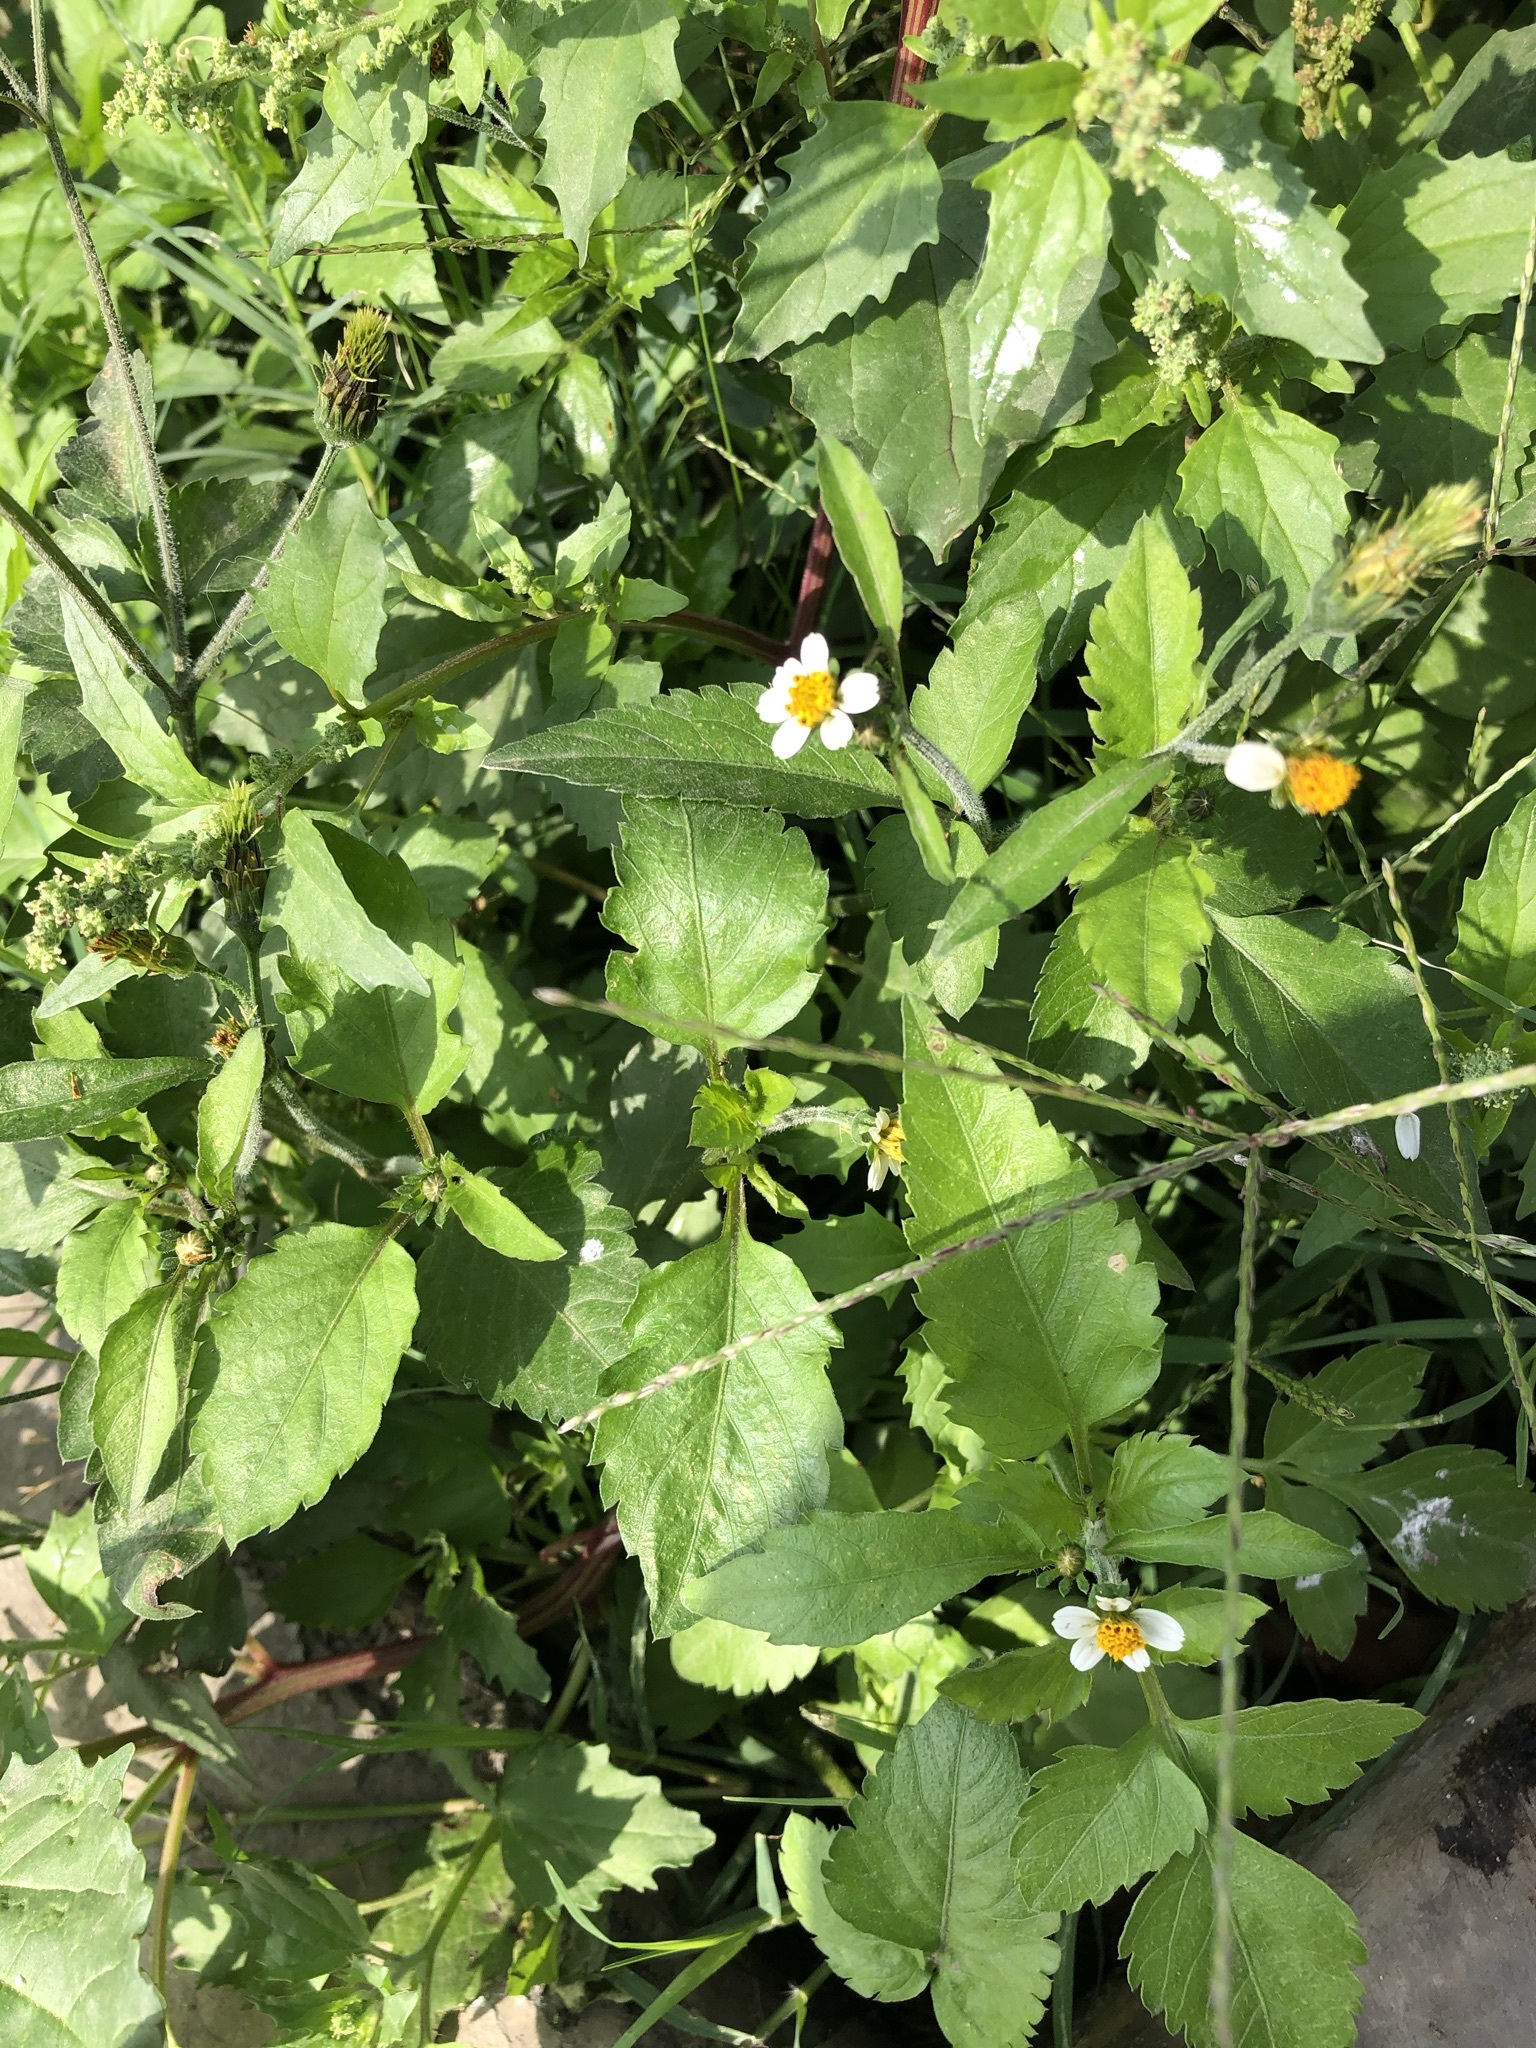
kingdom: Plantae
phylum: Tracheophyta
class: Magnoliopsida
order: Asterales
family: Asteraceae
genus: Bidens
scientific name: Bidens pilosa
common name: Black-jack
